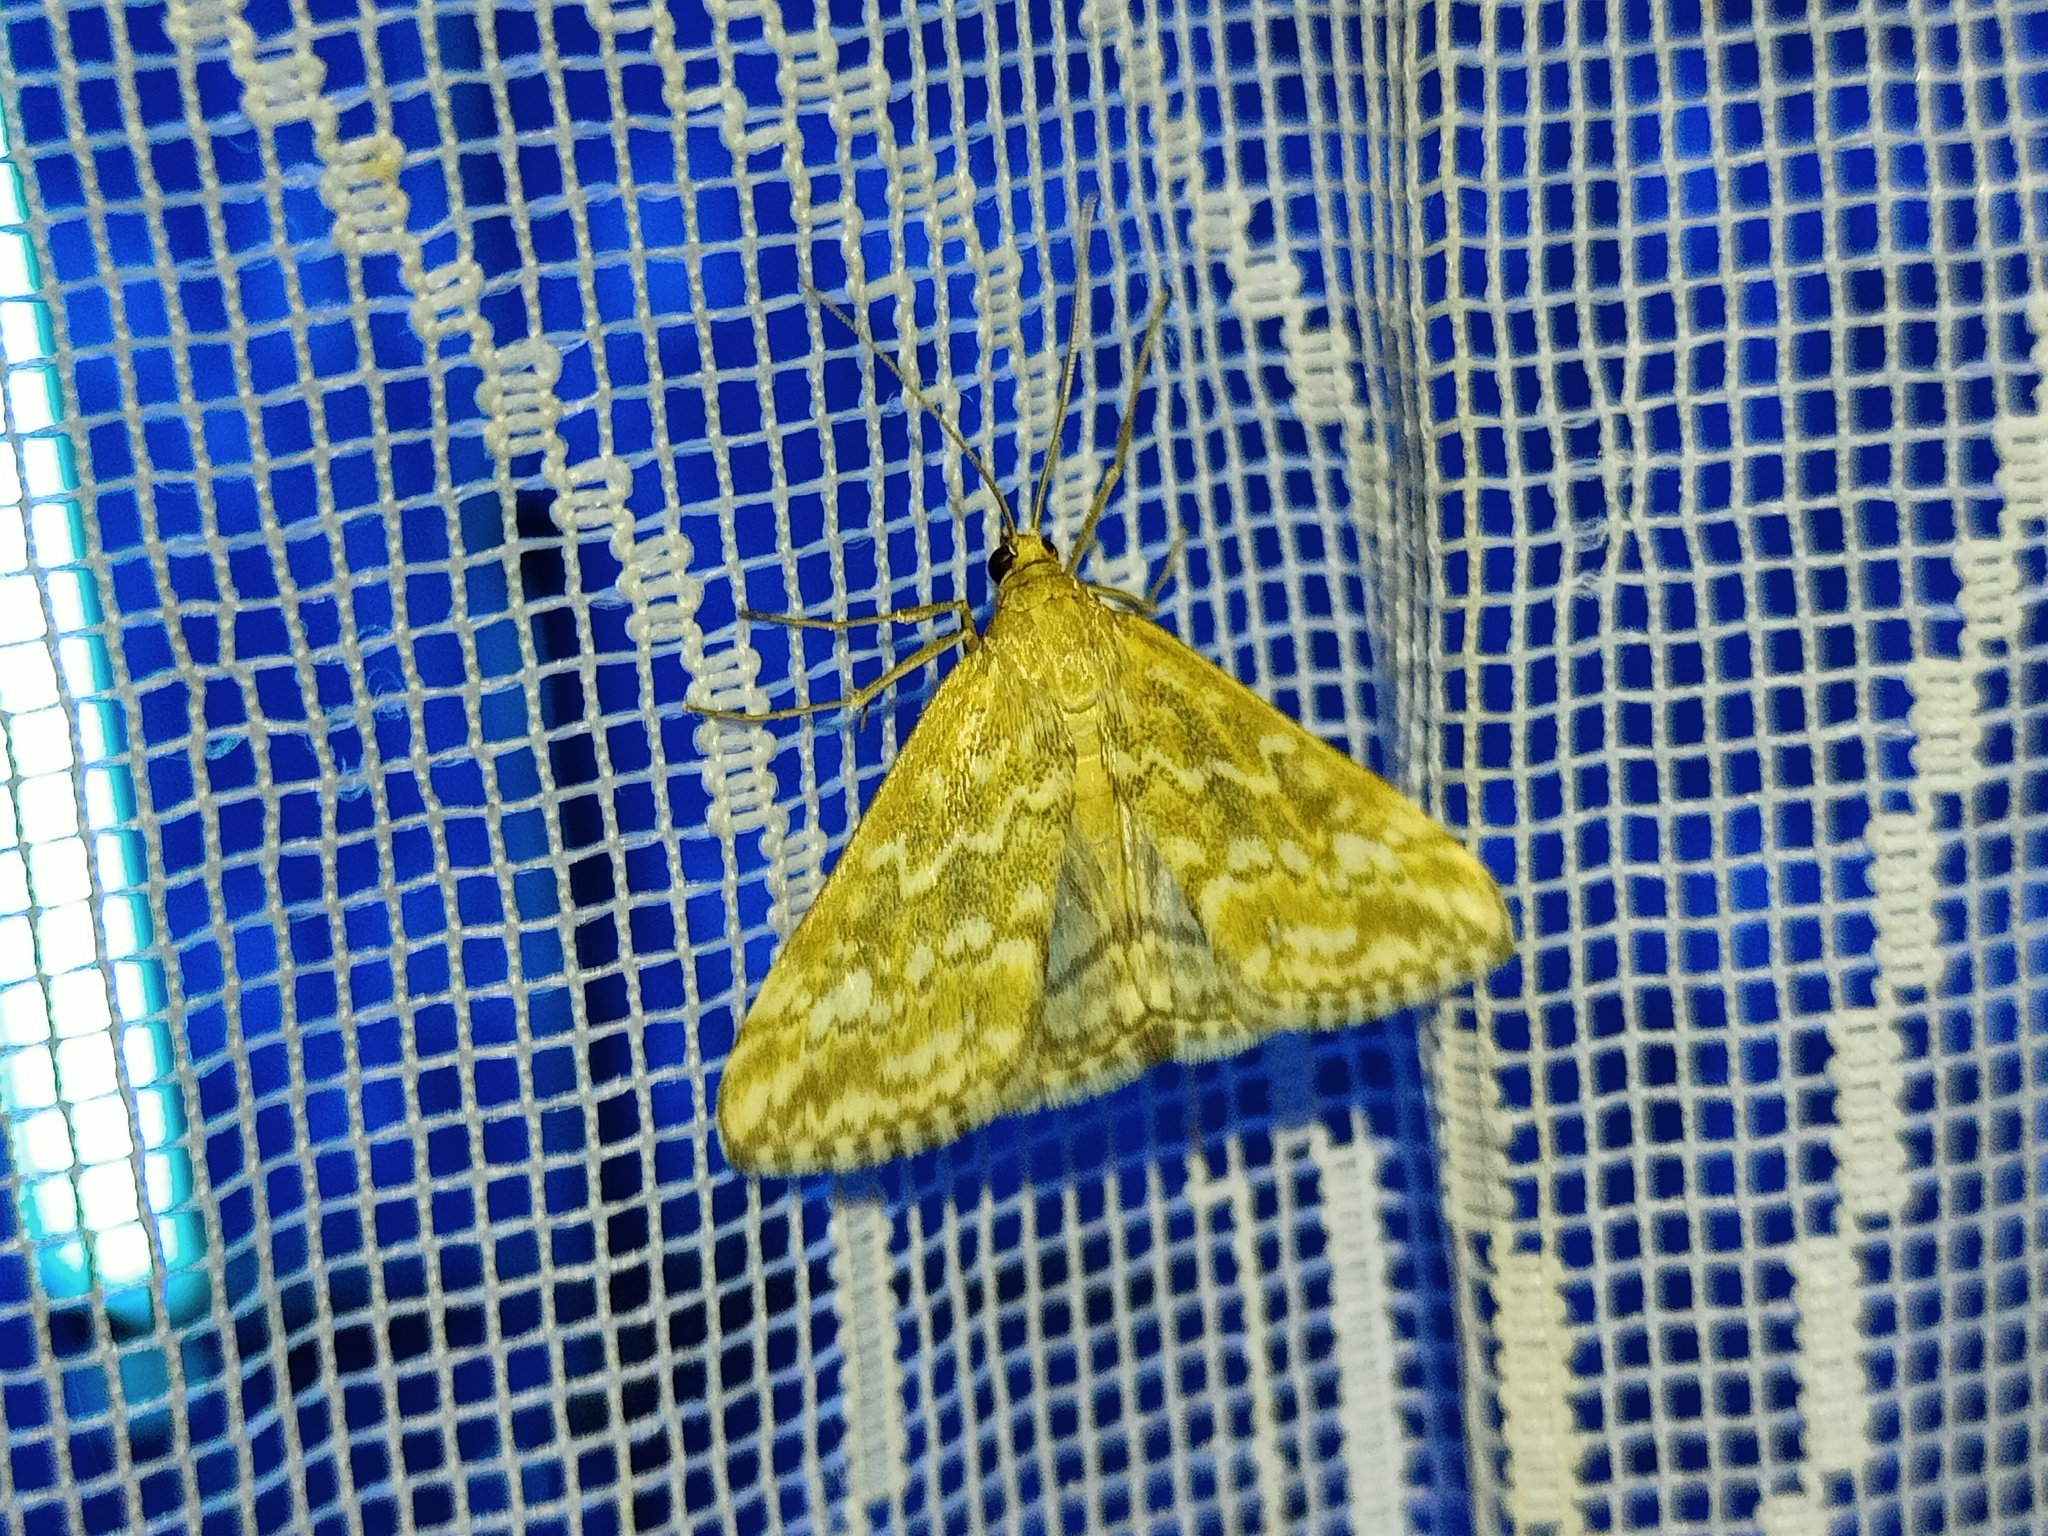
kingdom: Animalia
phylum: Arthropoda
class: Insecta
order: Lepidoptera
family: Crambidae
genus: Evergestis
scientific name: Evergestis frumentalis
